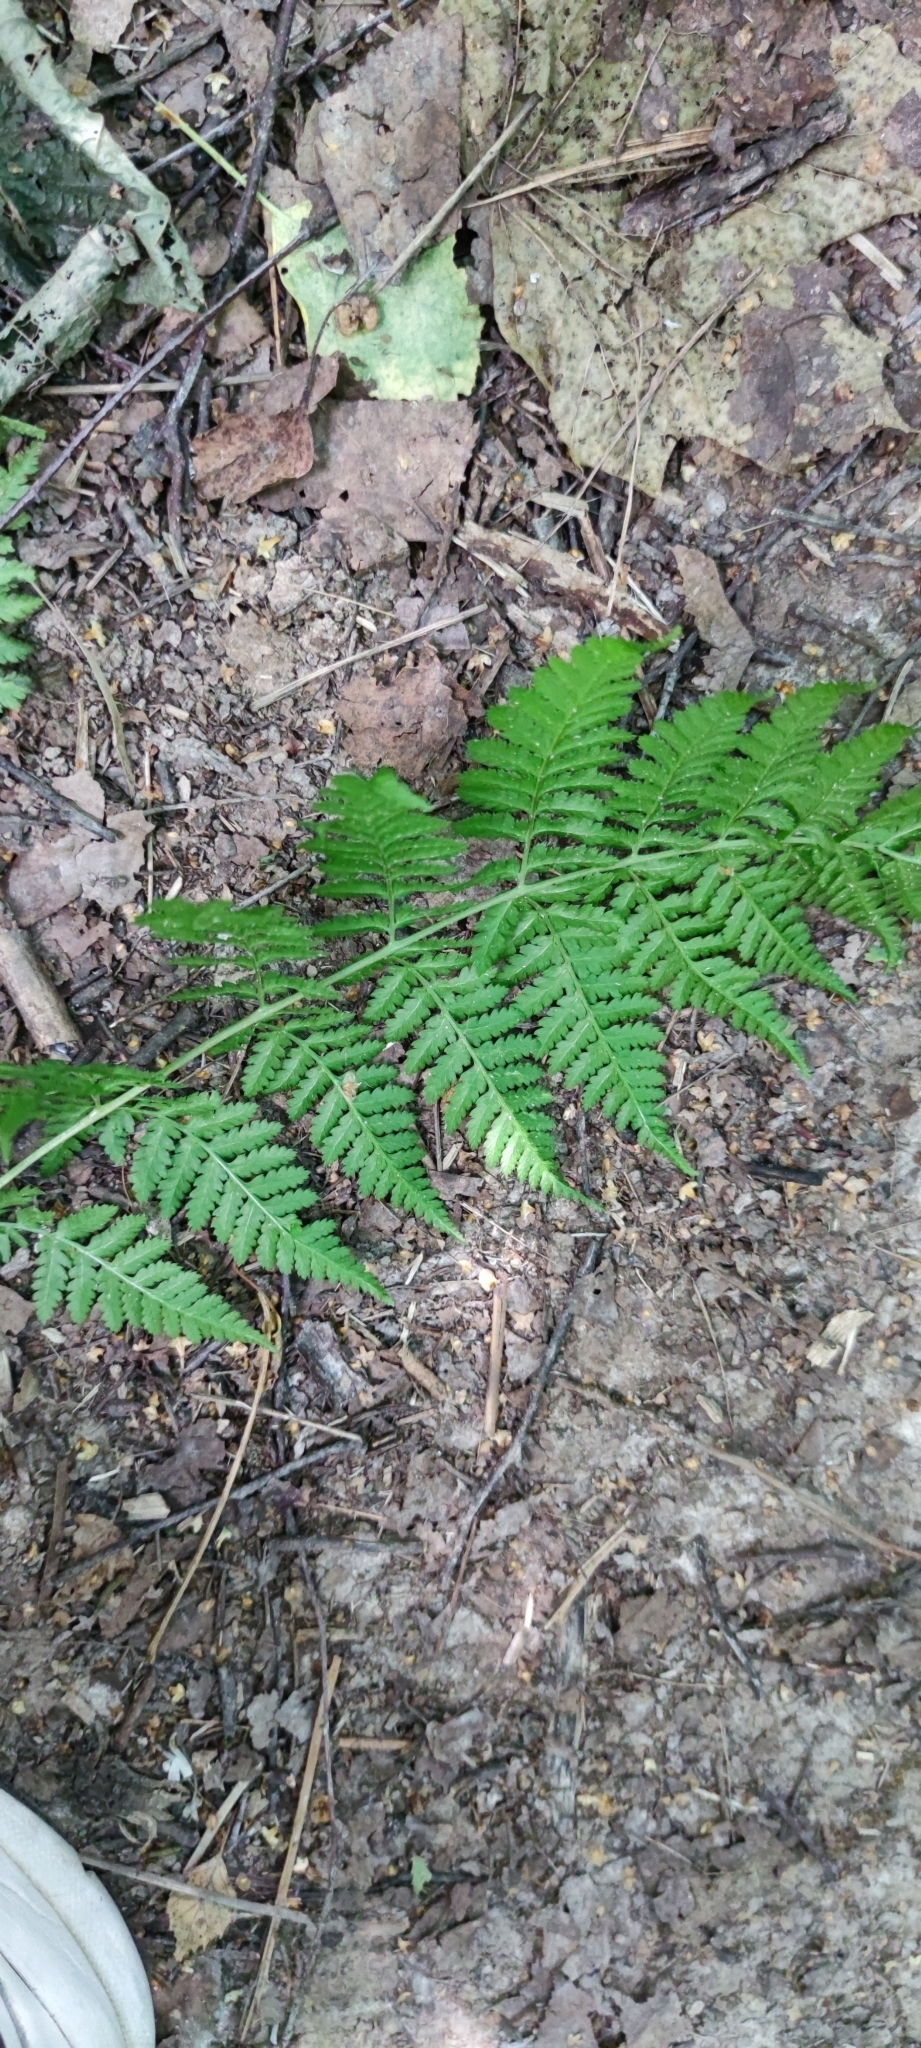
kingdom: Plantae
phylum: Tracheophyta
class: Polypodiopsida
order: Polypodiales
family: Dryopteridaceae
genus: Dryopteris
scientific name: Dryopteris carthusiana
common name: Narrow buckler-fern
